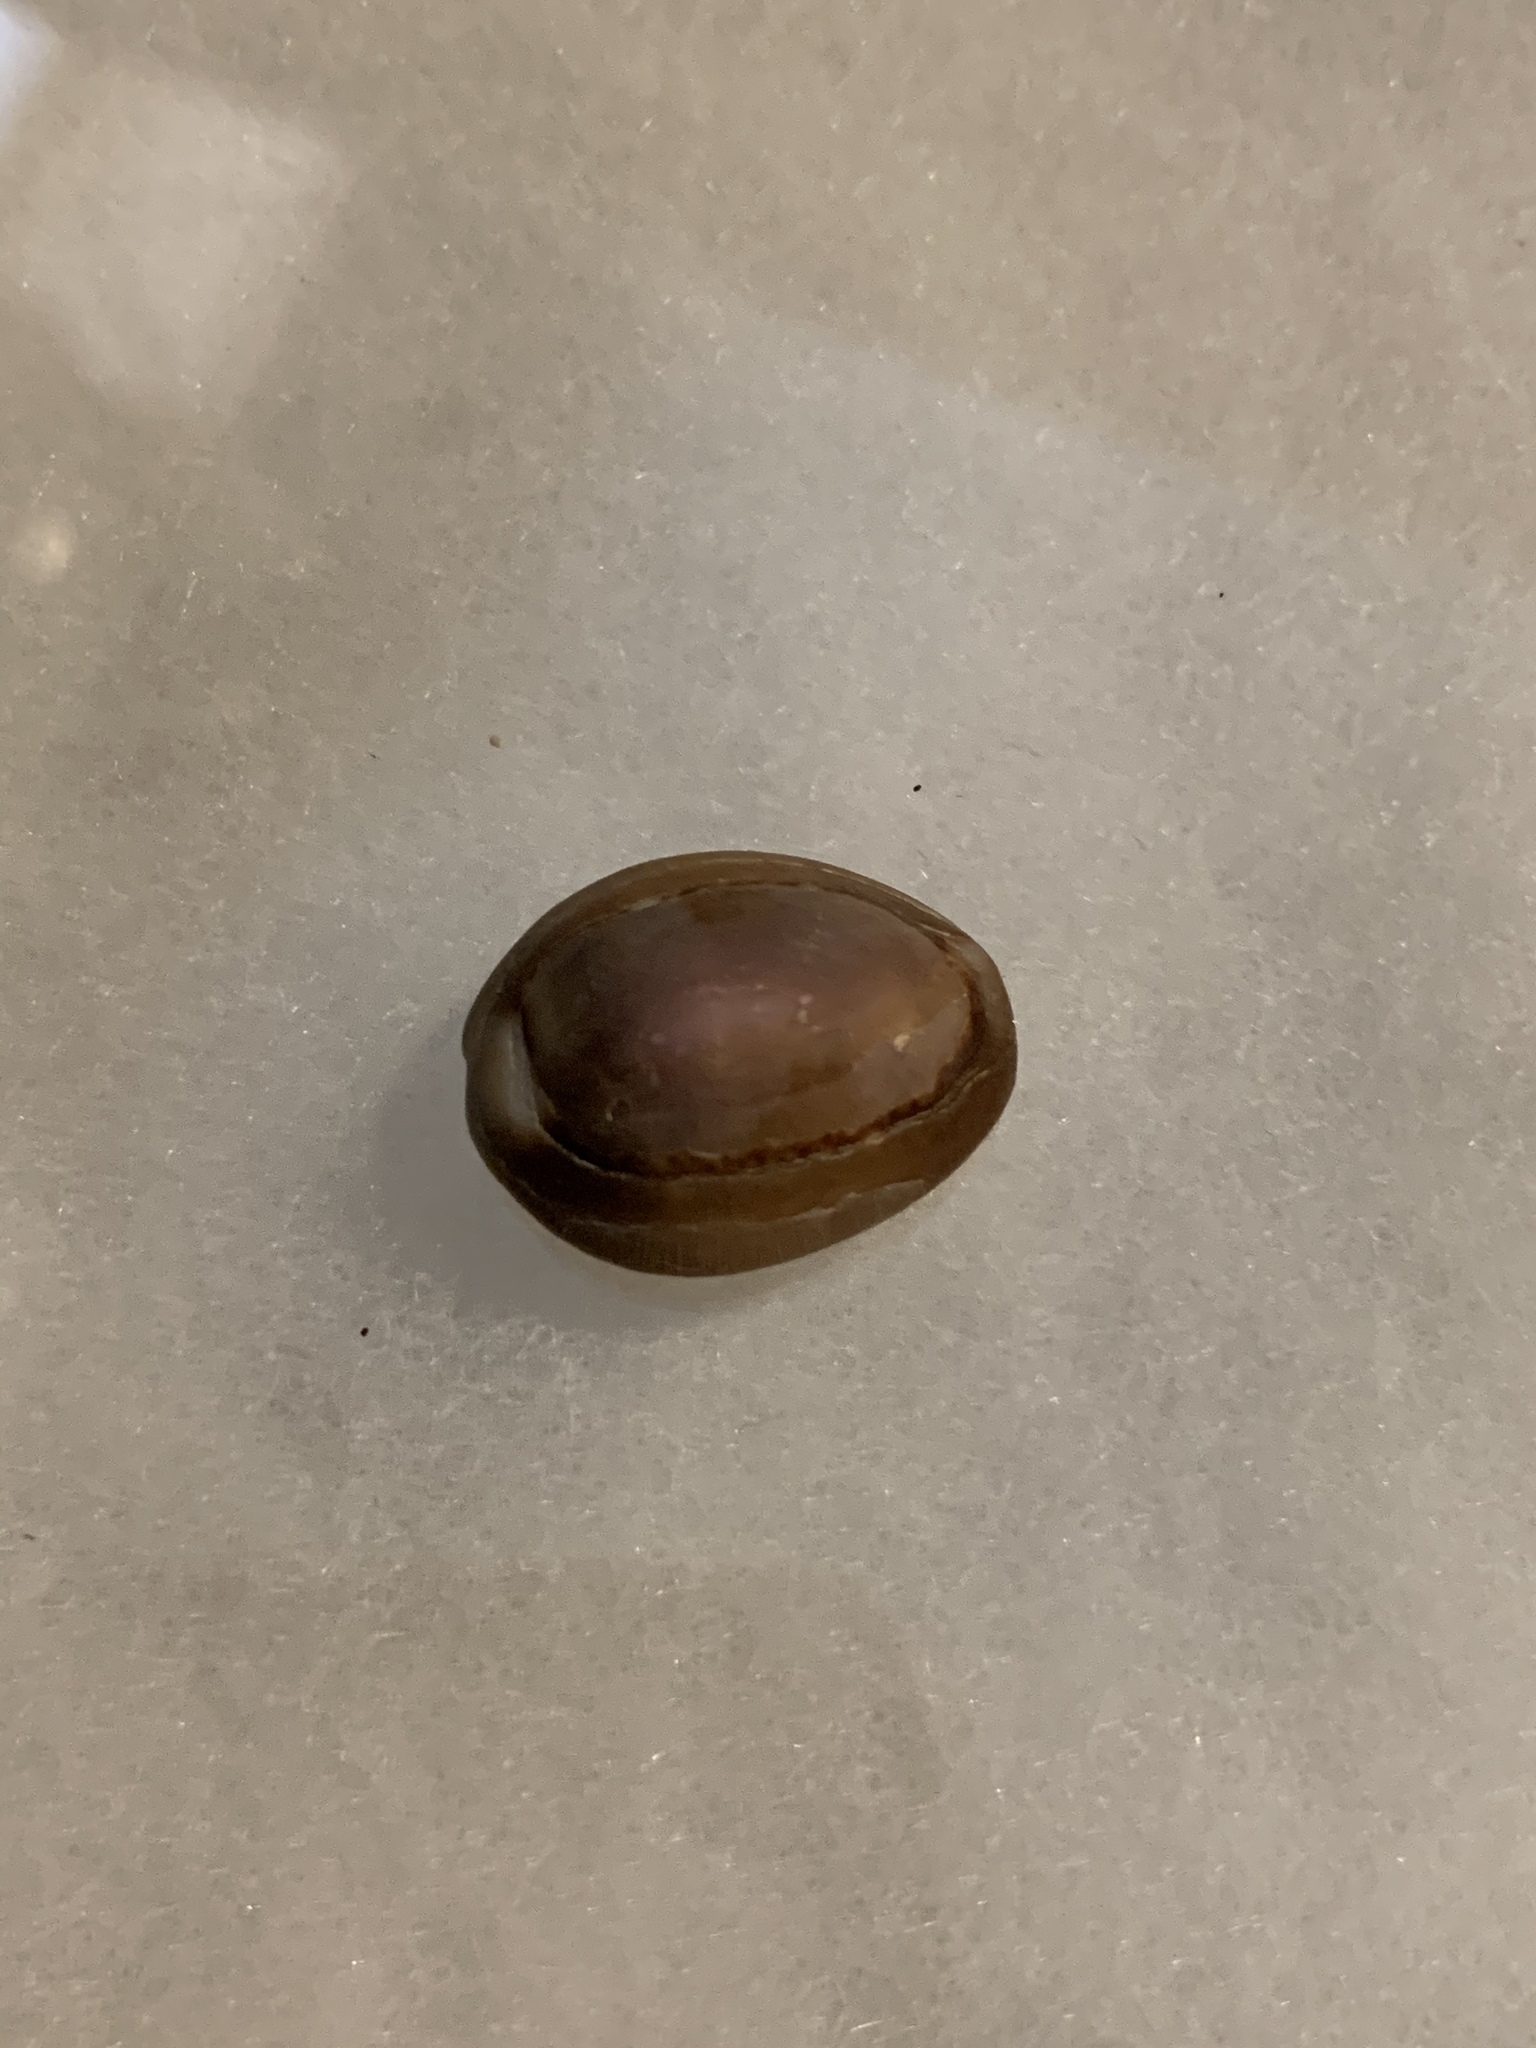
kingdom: Animalia
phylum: Mollusca
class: Gastropoda
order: Littorinimorpha
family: Cypraeidae
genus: Monetaria
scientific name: Monetaria caputophidii
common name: Snake's head cowry
